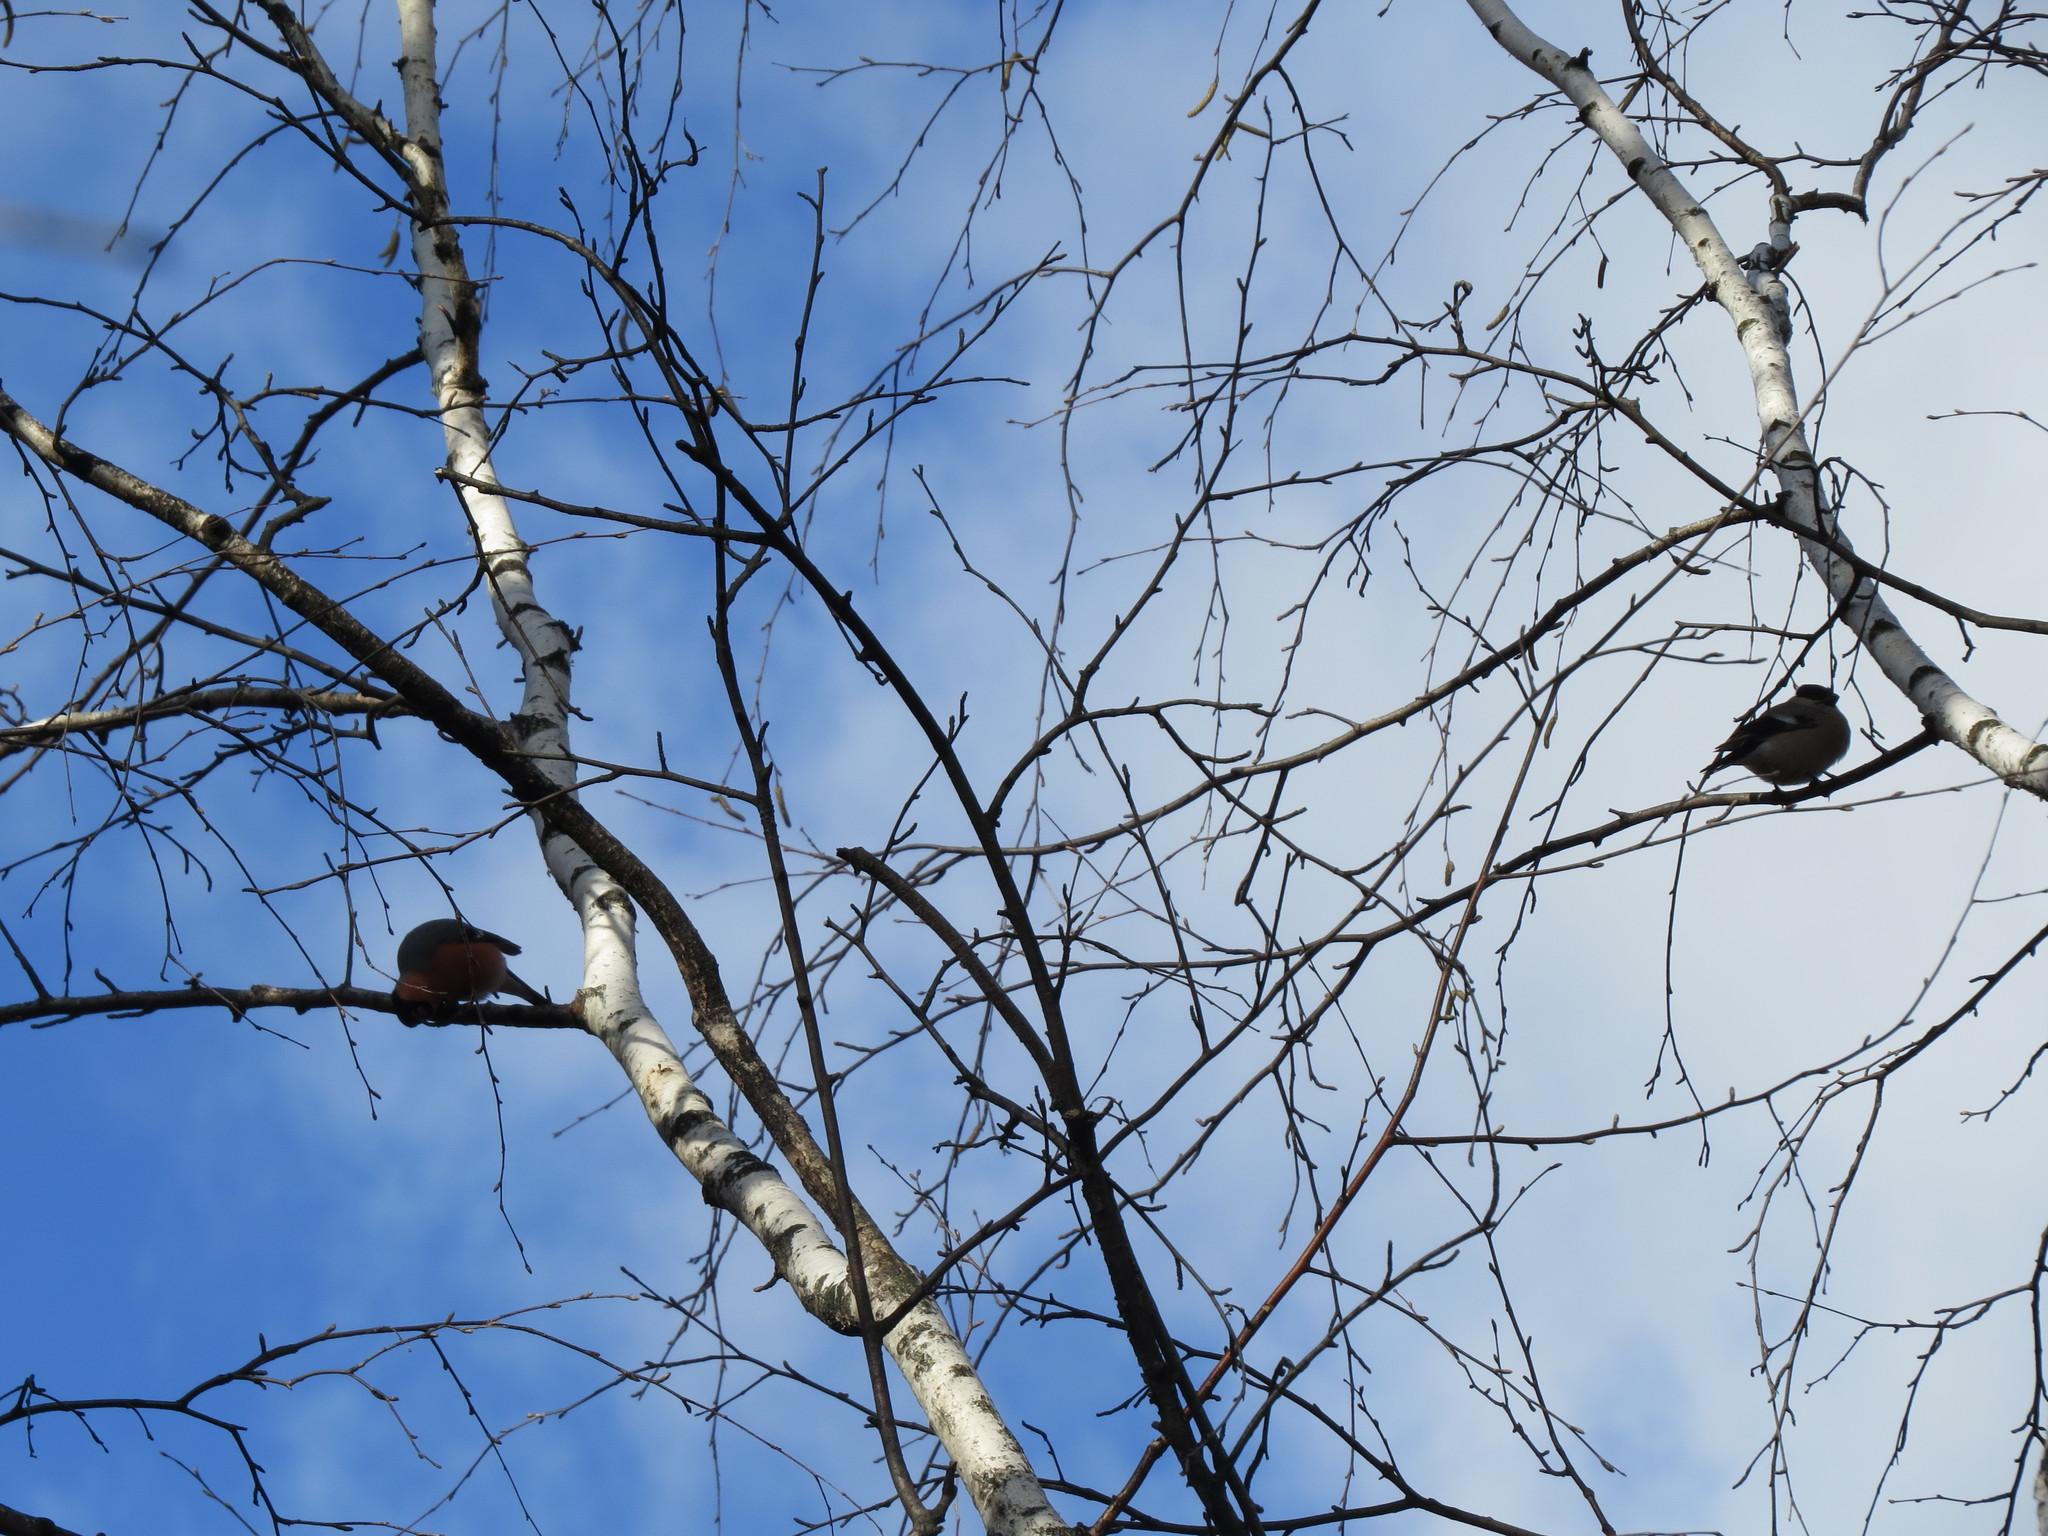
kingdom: Animalia
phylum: Chordata
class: Aves
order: Passeriformes
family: Fringillidae
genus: Pyrrhula
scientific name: Pyrrhula pyrrhula
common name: Eurasian bullfinch
